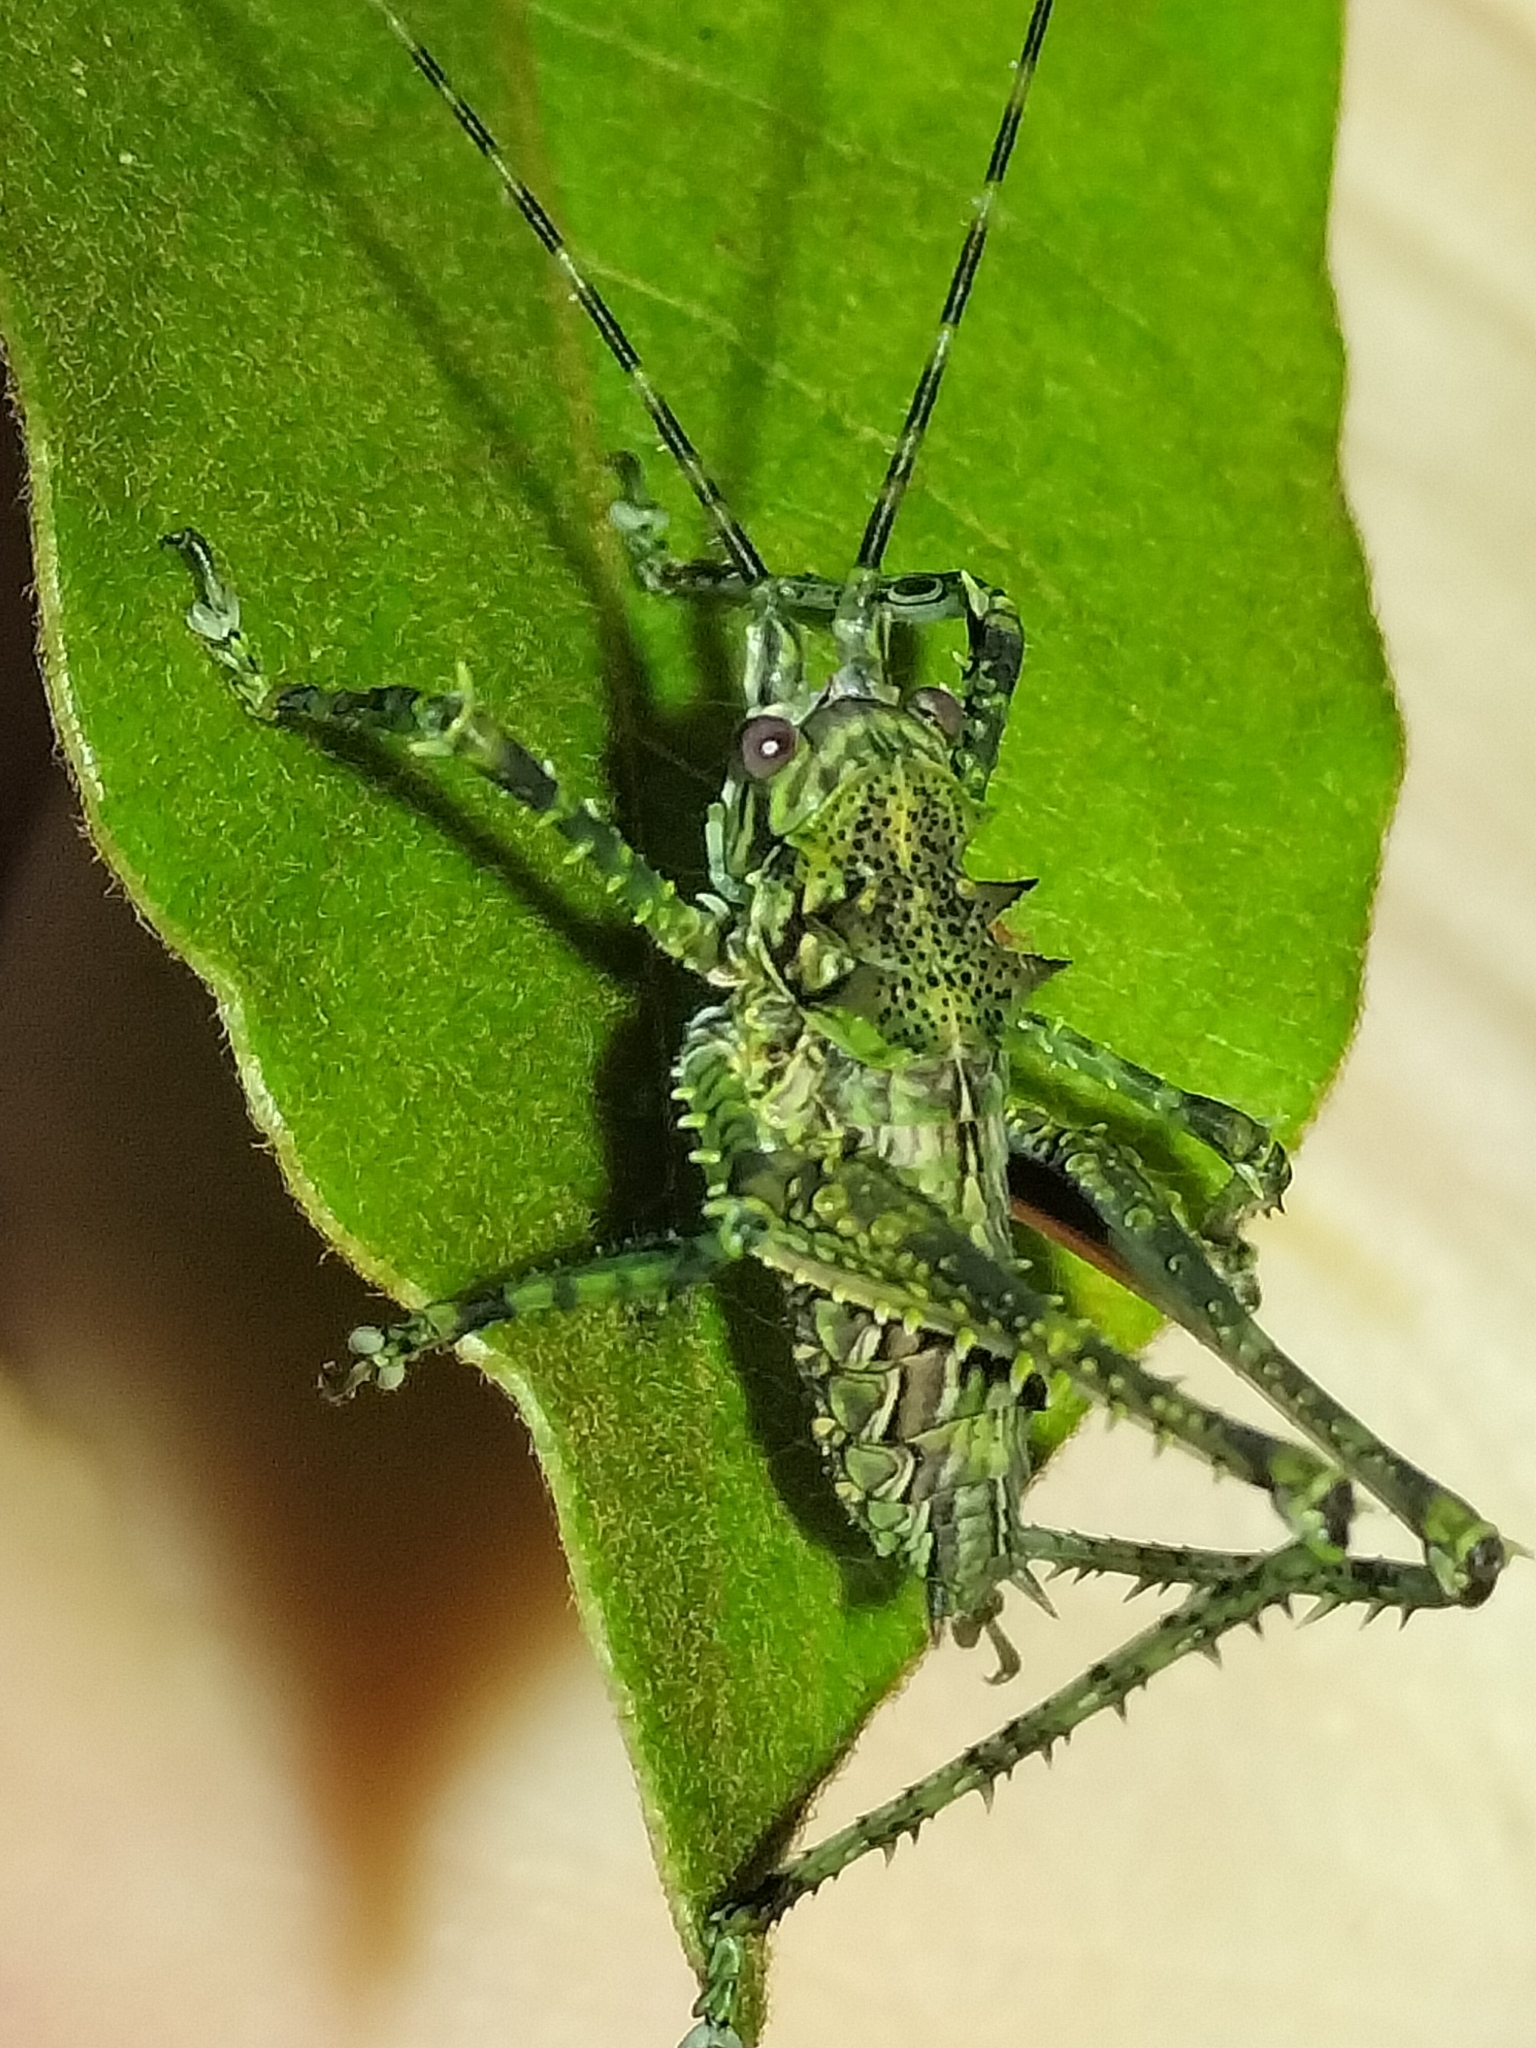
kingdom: Animalia
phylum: Arthropoda
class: Insecta
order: Orthoptera
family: Tettigoniidae
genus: Phricta
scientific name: Phricta spinosa
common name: Giant spiny forest katydid
